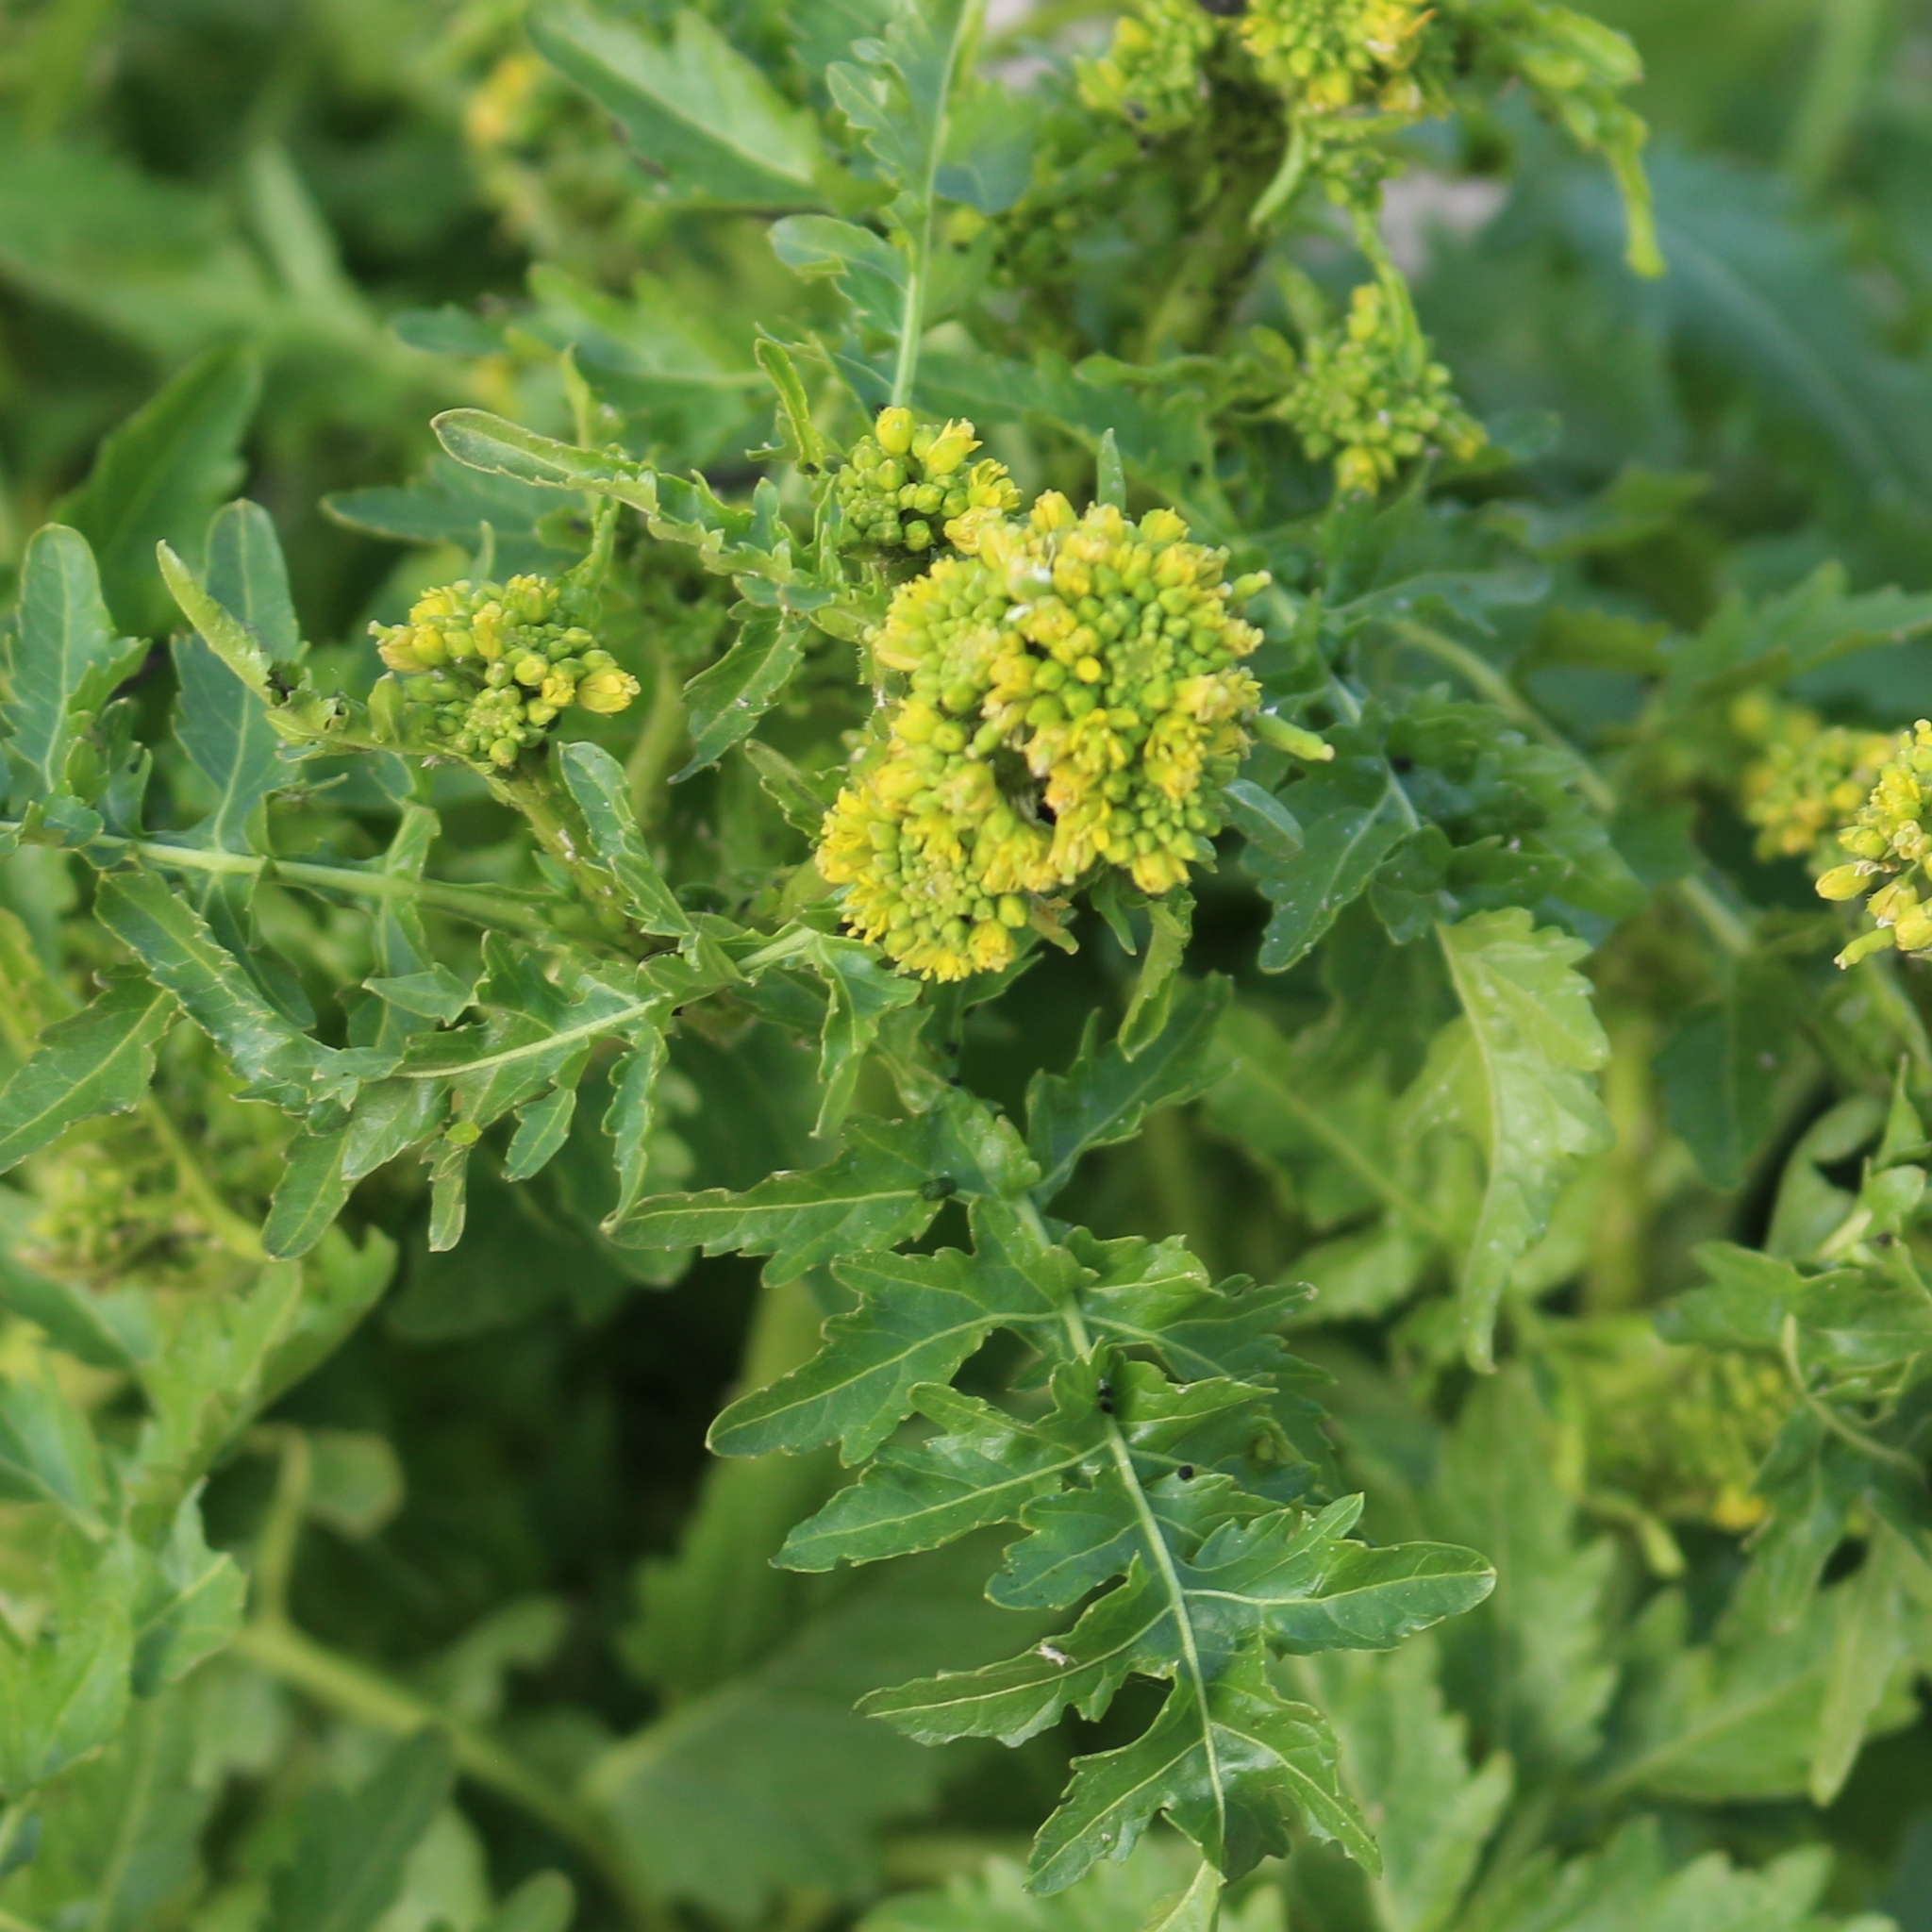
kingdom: Plantae
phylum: Tracheophyta
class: Magnoliopsida
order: Brassicales
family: Brassicaceae
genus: Rorippa
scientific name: Rorippa palustris
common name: Marsh yellow-cress
